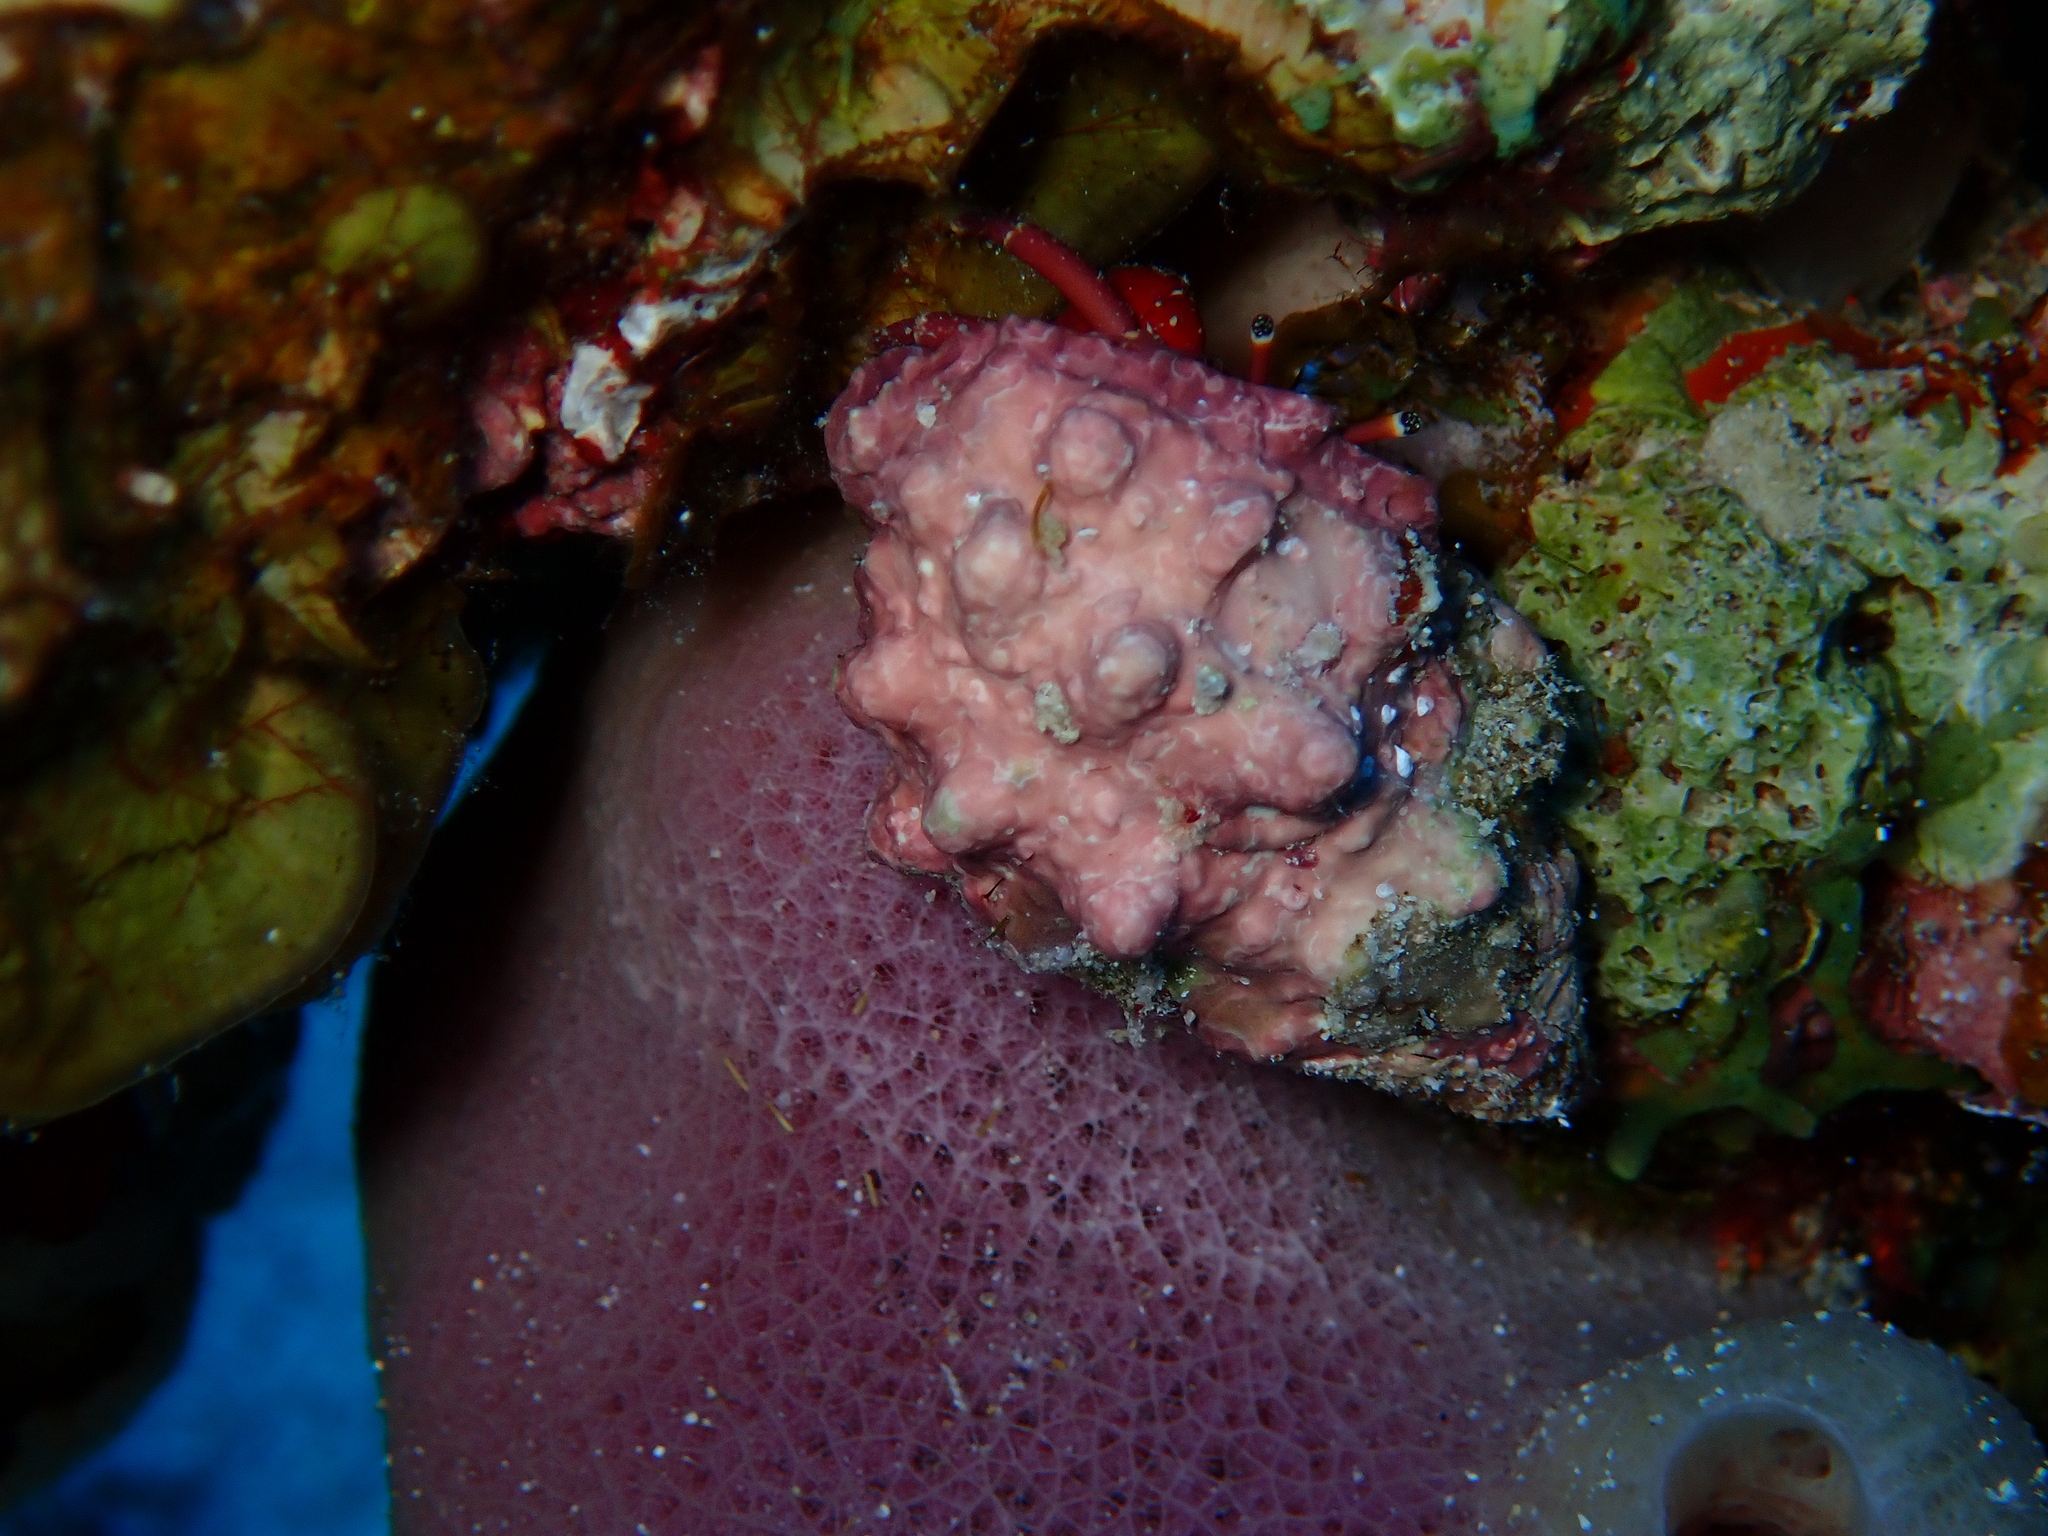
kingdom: Animalia
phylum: Arthropoda
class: Malacostraca
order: Decapoda
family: Diogenidae
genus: Calcinus
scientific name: Calcinus rosaceus
